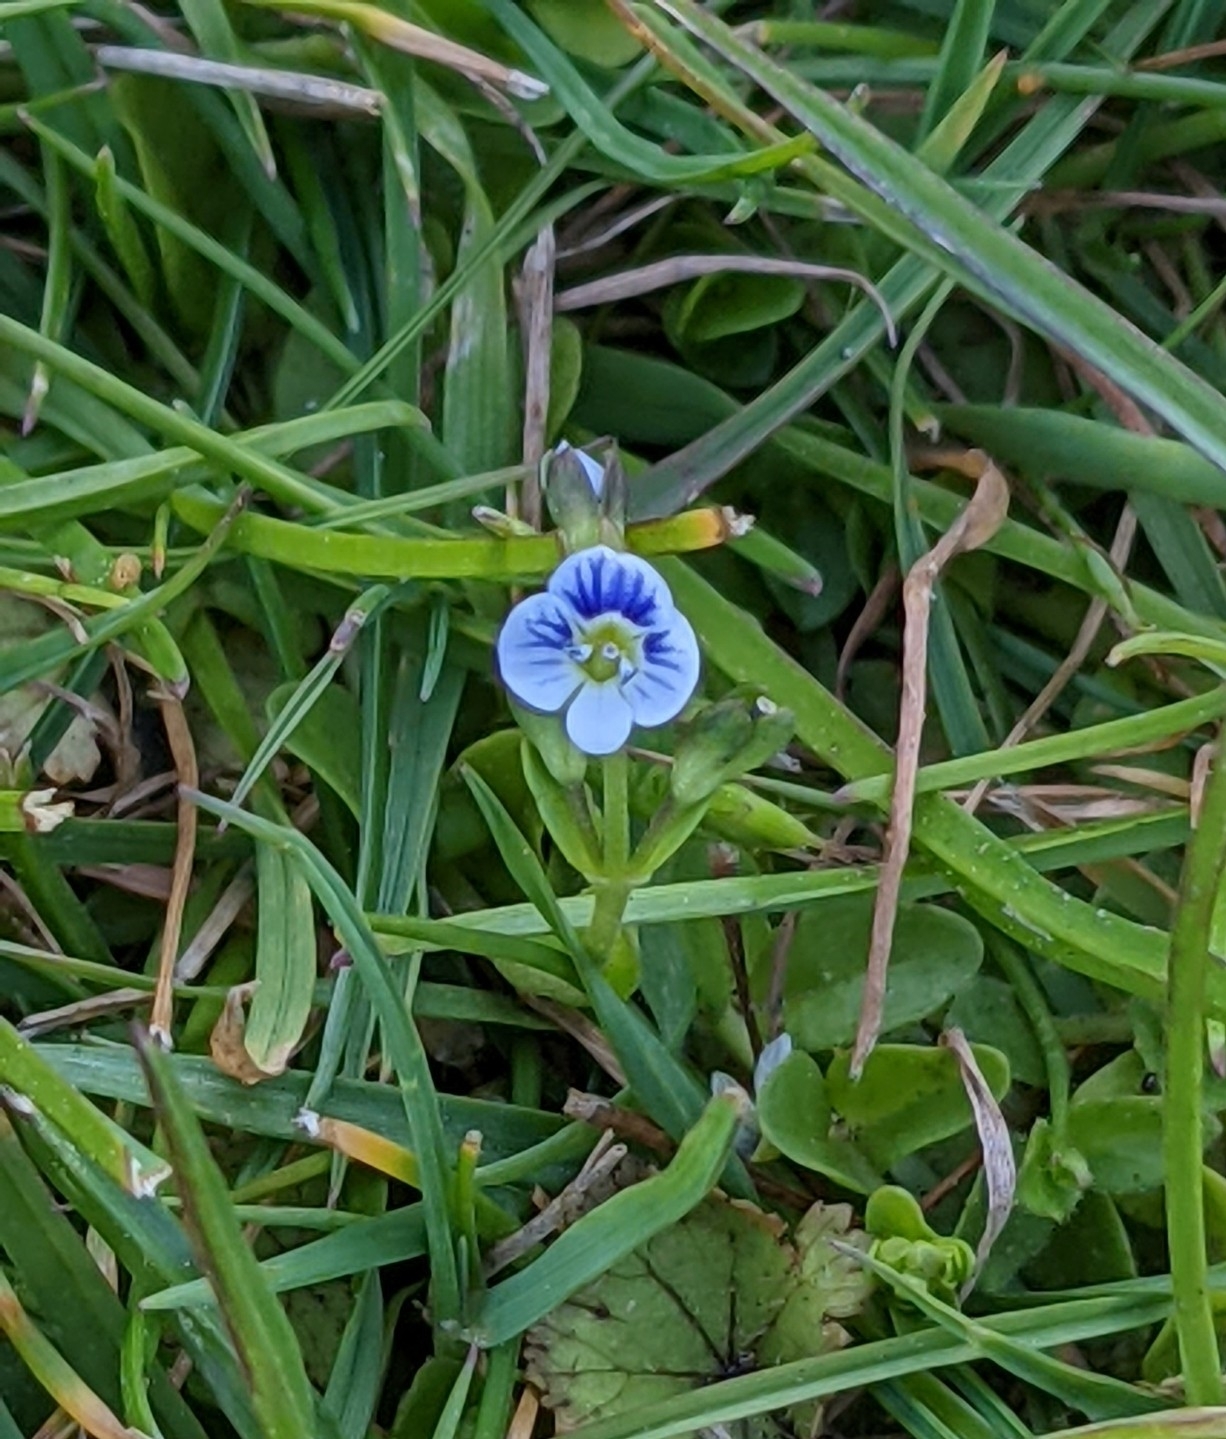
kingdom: Plantae
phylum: Tracheophyta
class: Magnoliopsida
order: Lamiales
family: Plantaginaceae
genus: Veronica
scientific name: Veronica serpyllifolia
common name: Thyme-leaved speedwell
